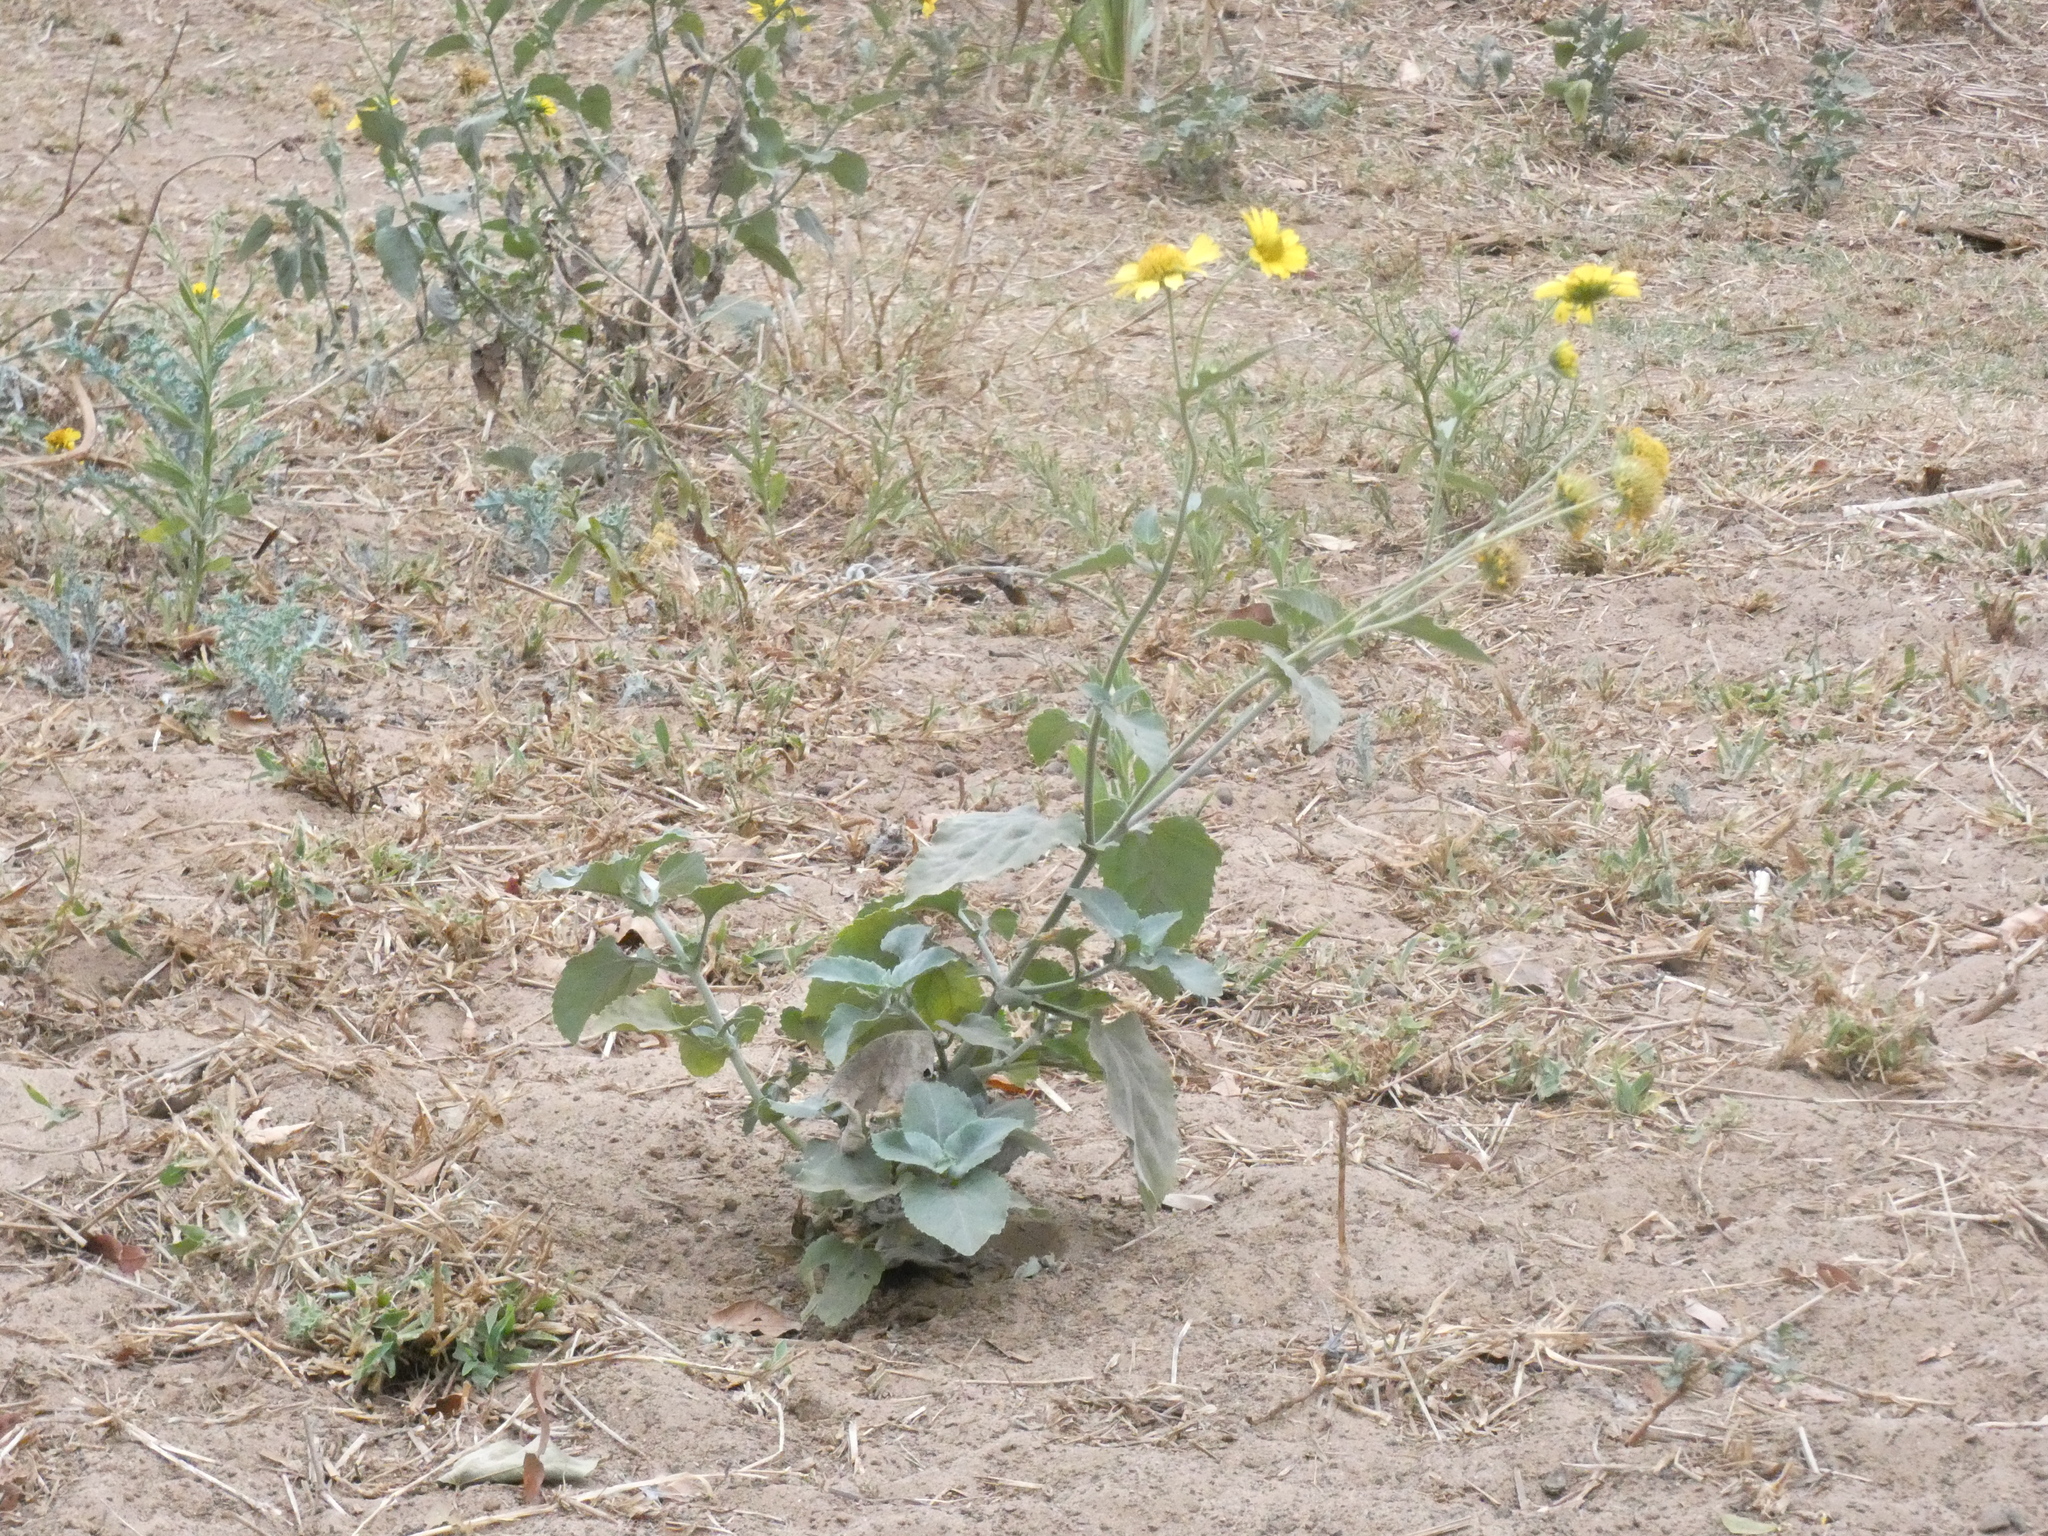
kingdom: Plantae
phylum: Tracheophyta
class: Magnoliopsida
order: Asterales
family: Asteraceae
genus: Verbesina
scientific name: Verbesina encelioides
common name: Golden crownbeard
